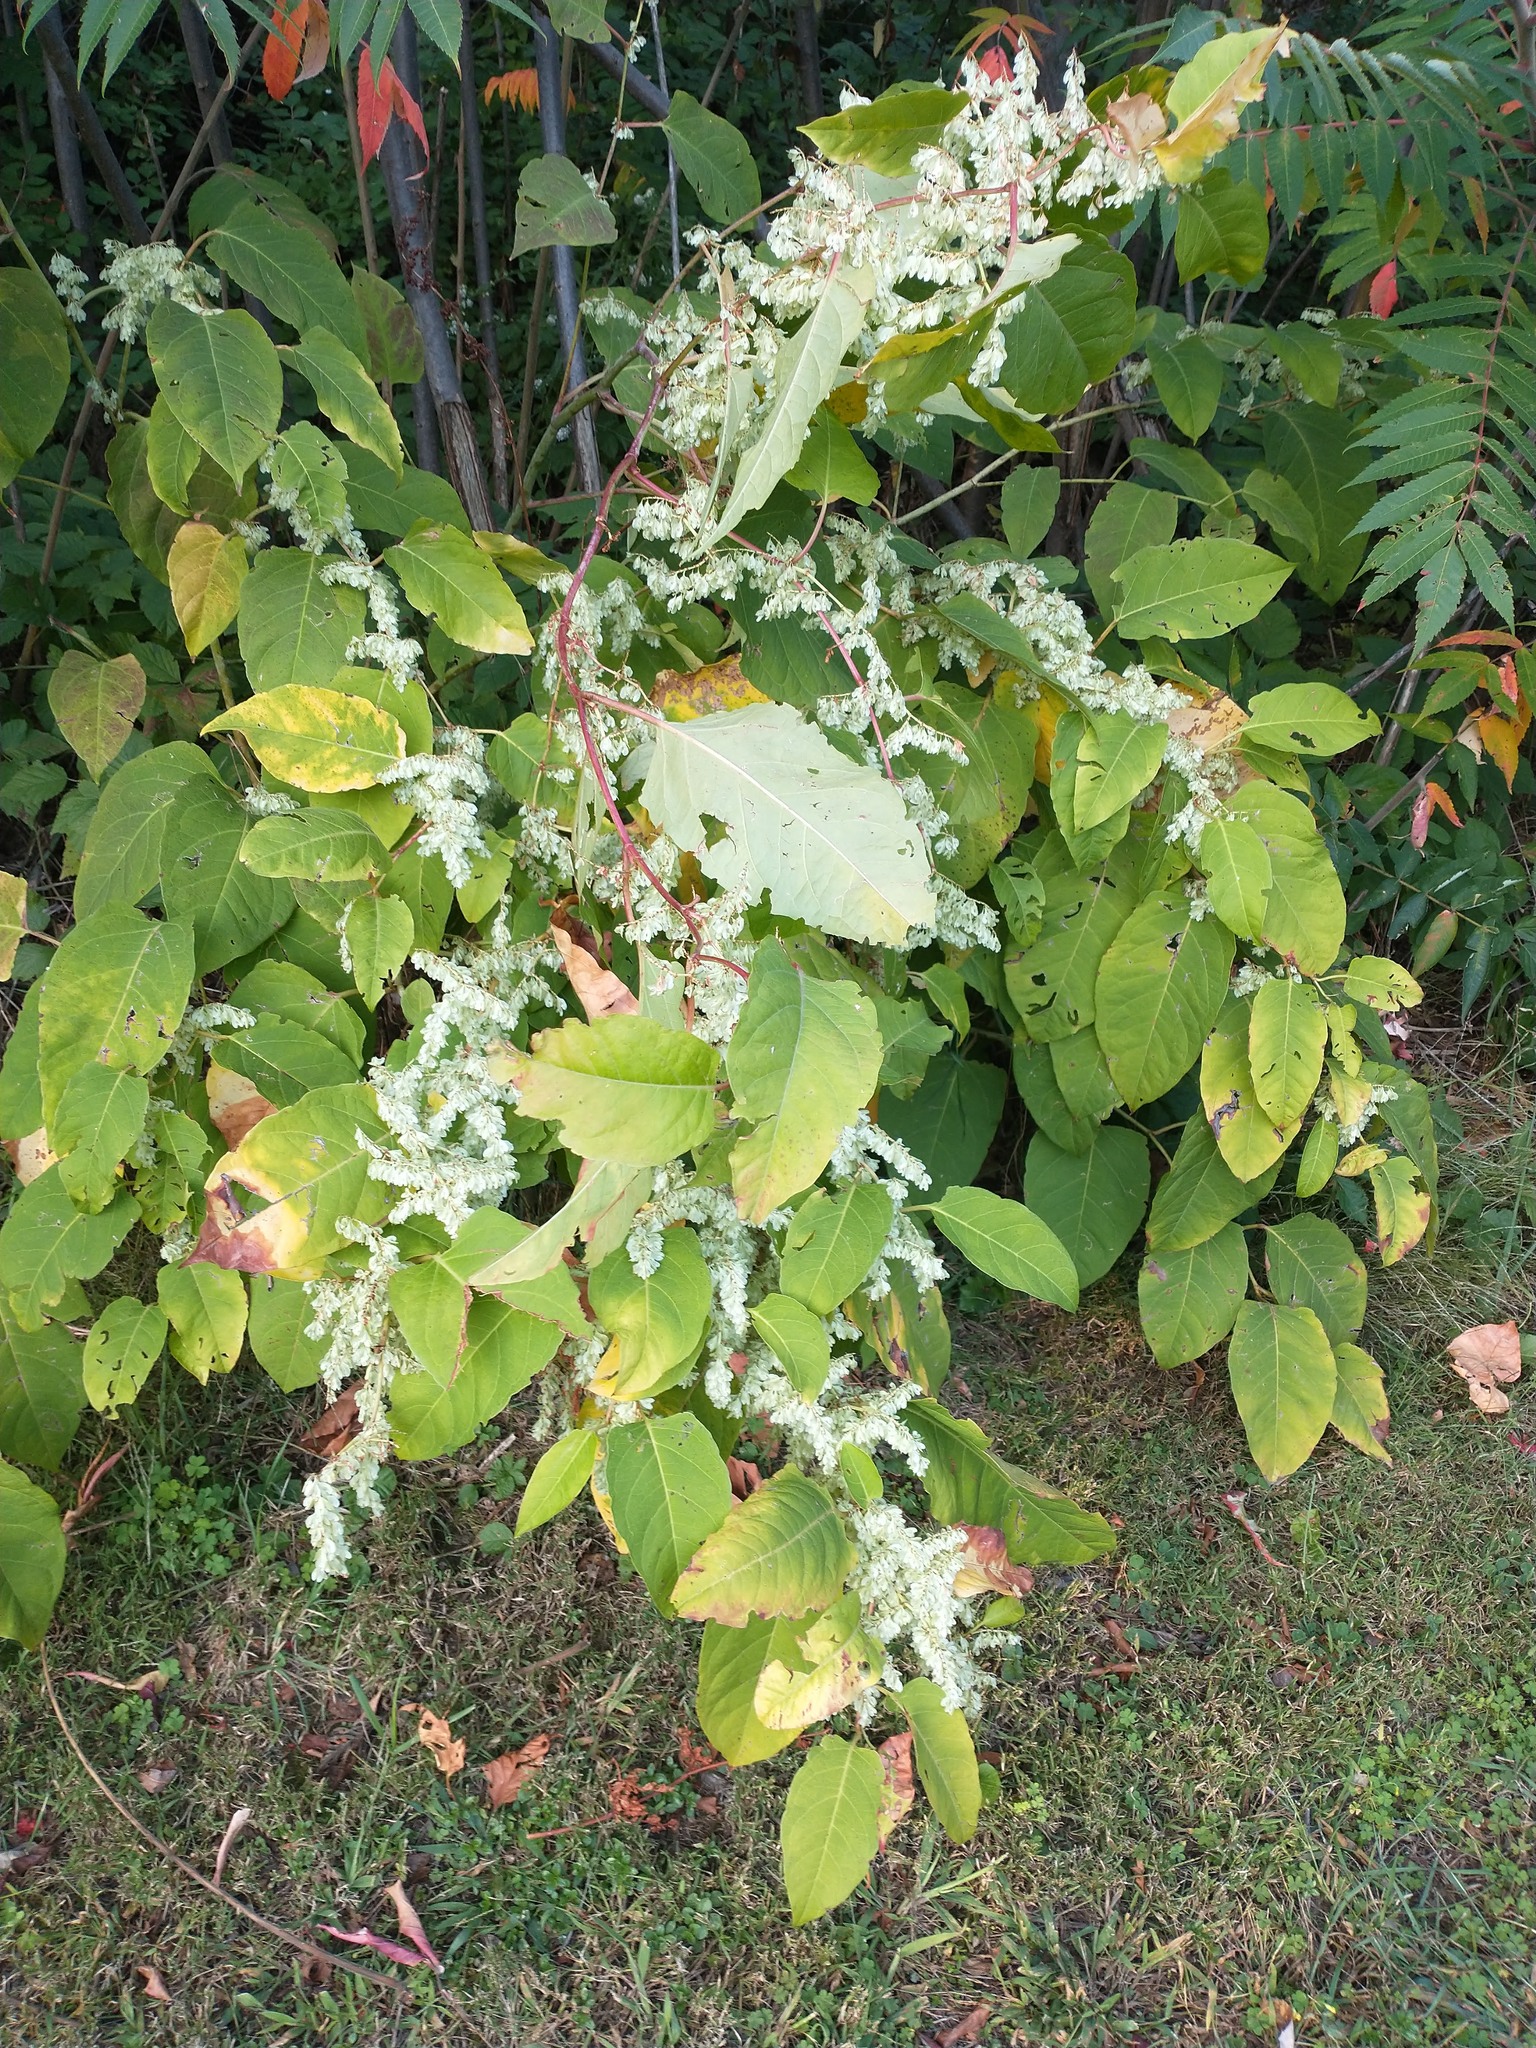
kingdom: Plantae
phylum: Tracheophyta
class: Magnoliopsida
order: Caryophyllales
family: Polygonaceae
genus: Reynoutria
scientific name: Reynoutria japonica
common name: Japanese knotweed
